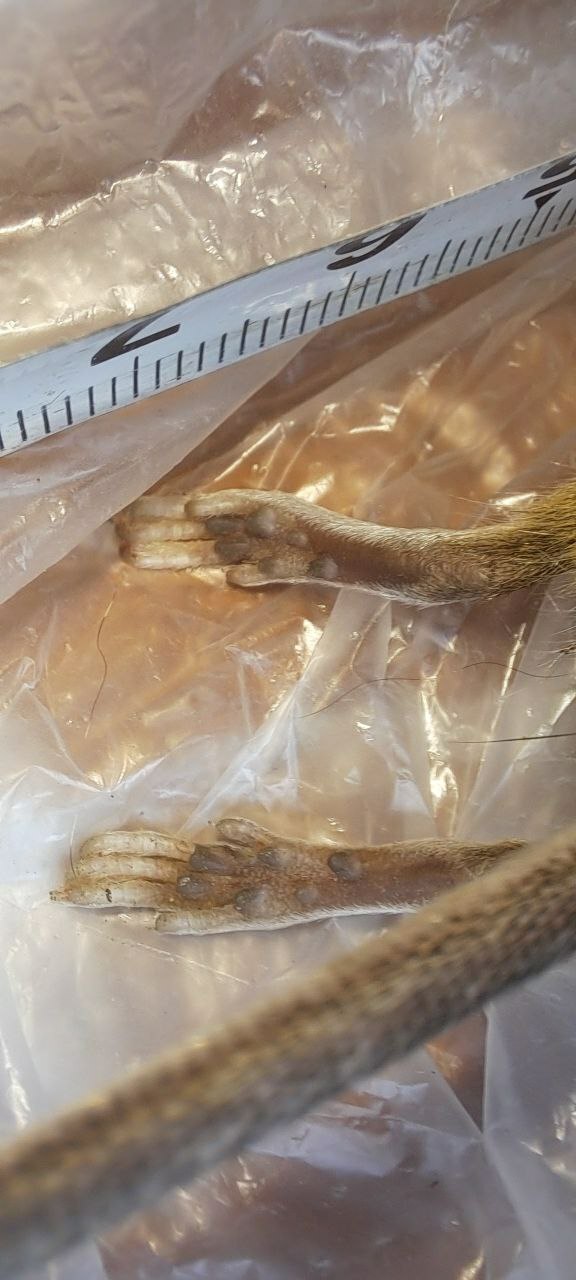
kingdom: Animalia
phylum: Chordata
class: Mammalia
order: Rodentia
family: Muridae
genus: Apodemus
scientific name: Apodemus flavicollis
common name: Yellow-necked field mouse
